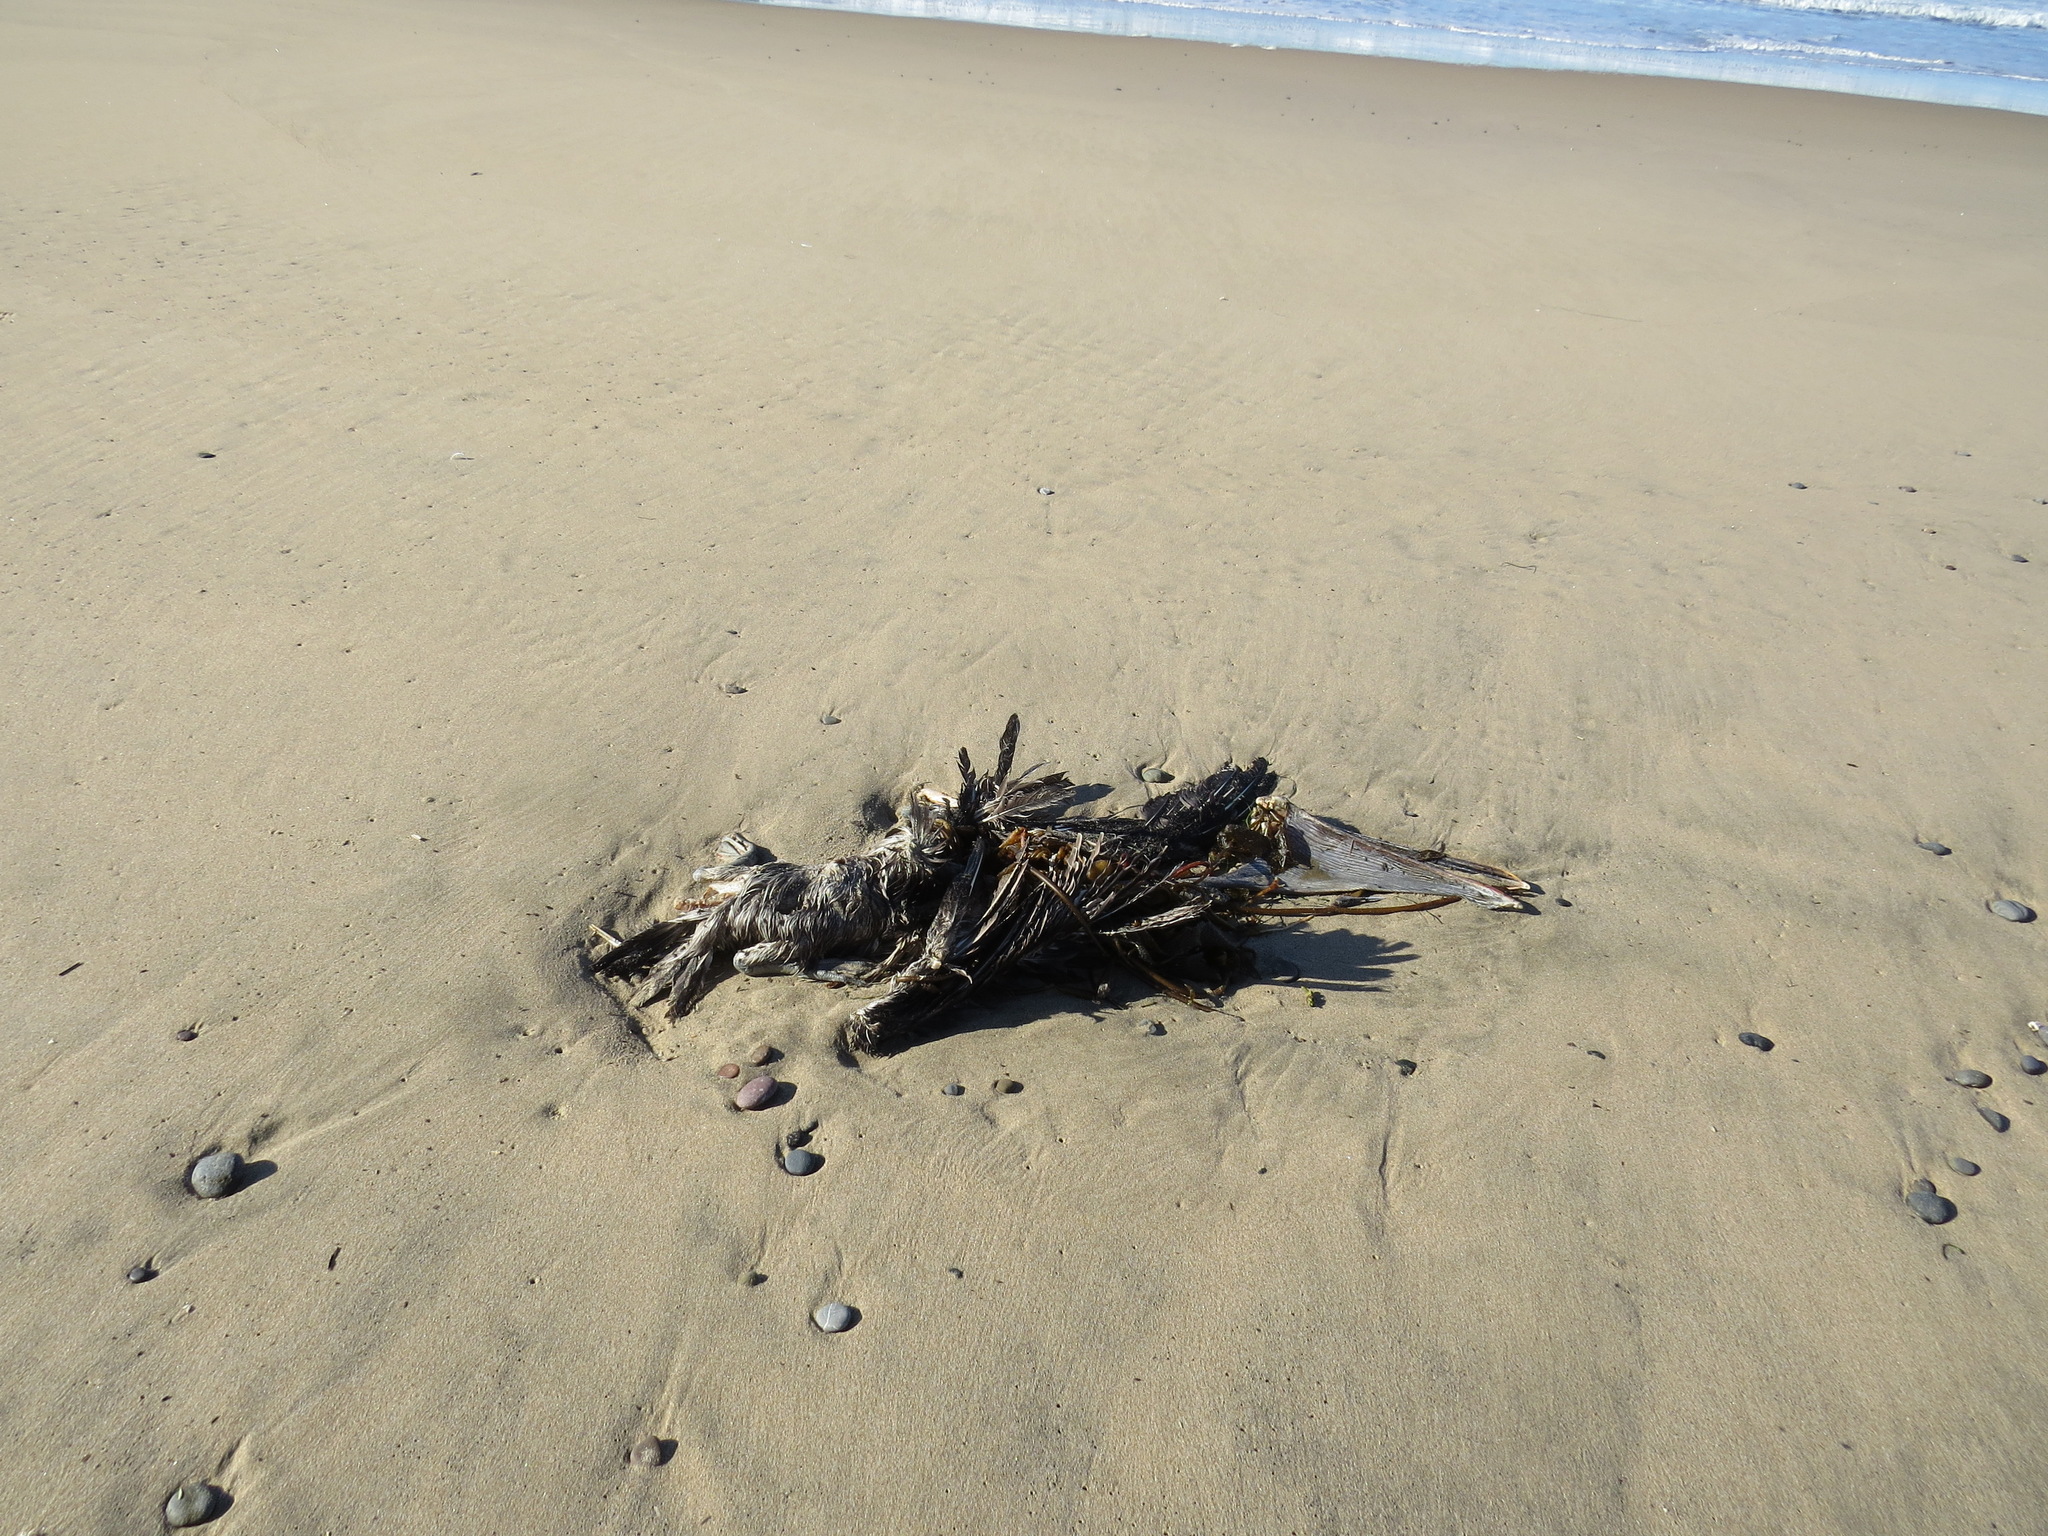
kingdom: Animalia
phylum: Chordata
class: Aves
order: Pelecaniformes
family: Pelecanidae
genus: Pelecanus
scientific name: Pelecanus occidentalis
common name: Brown pelican
